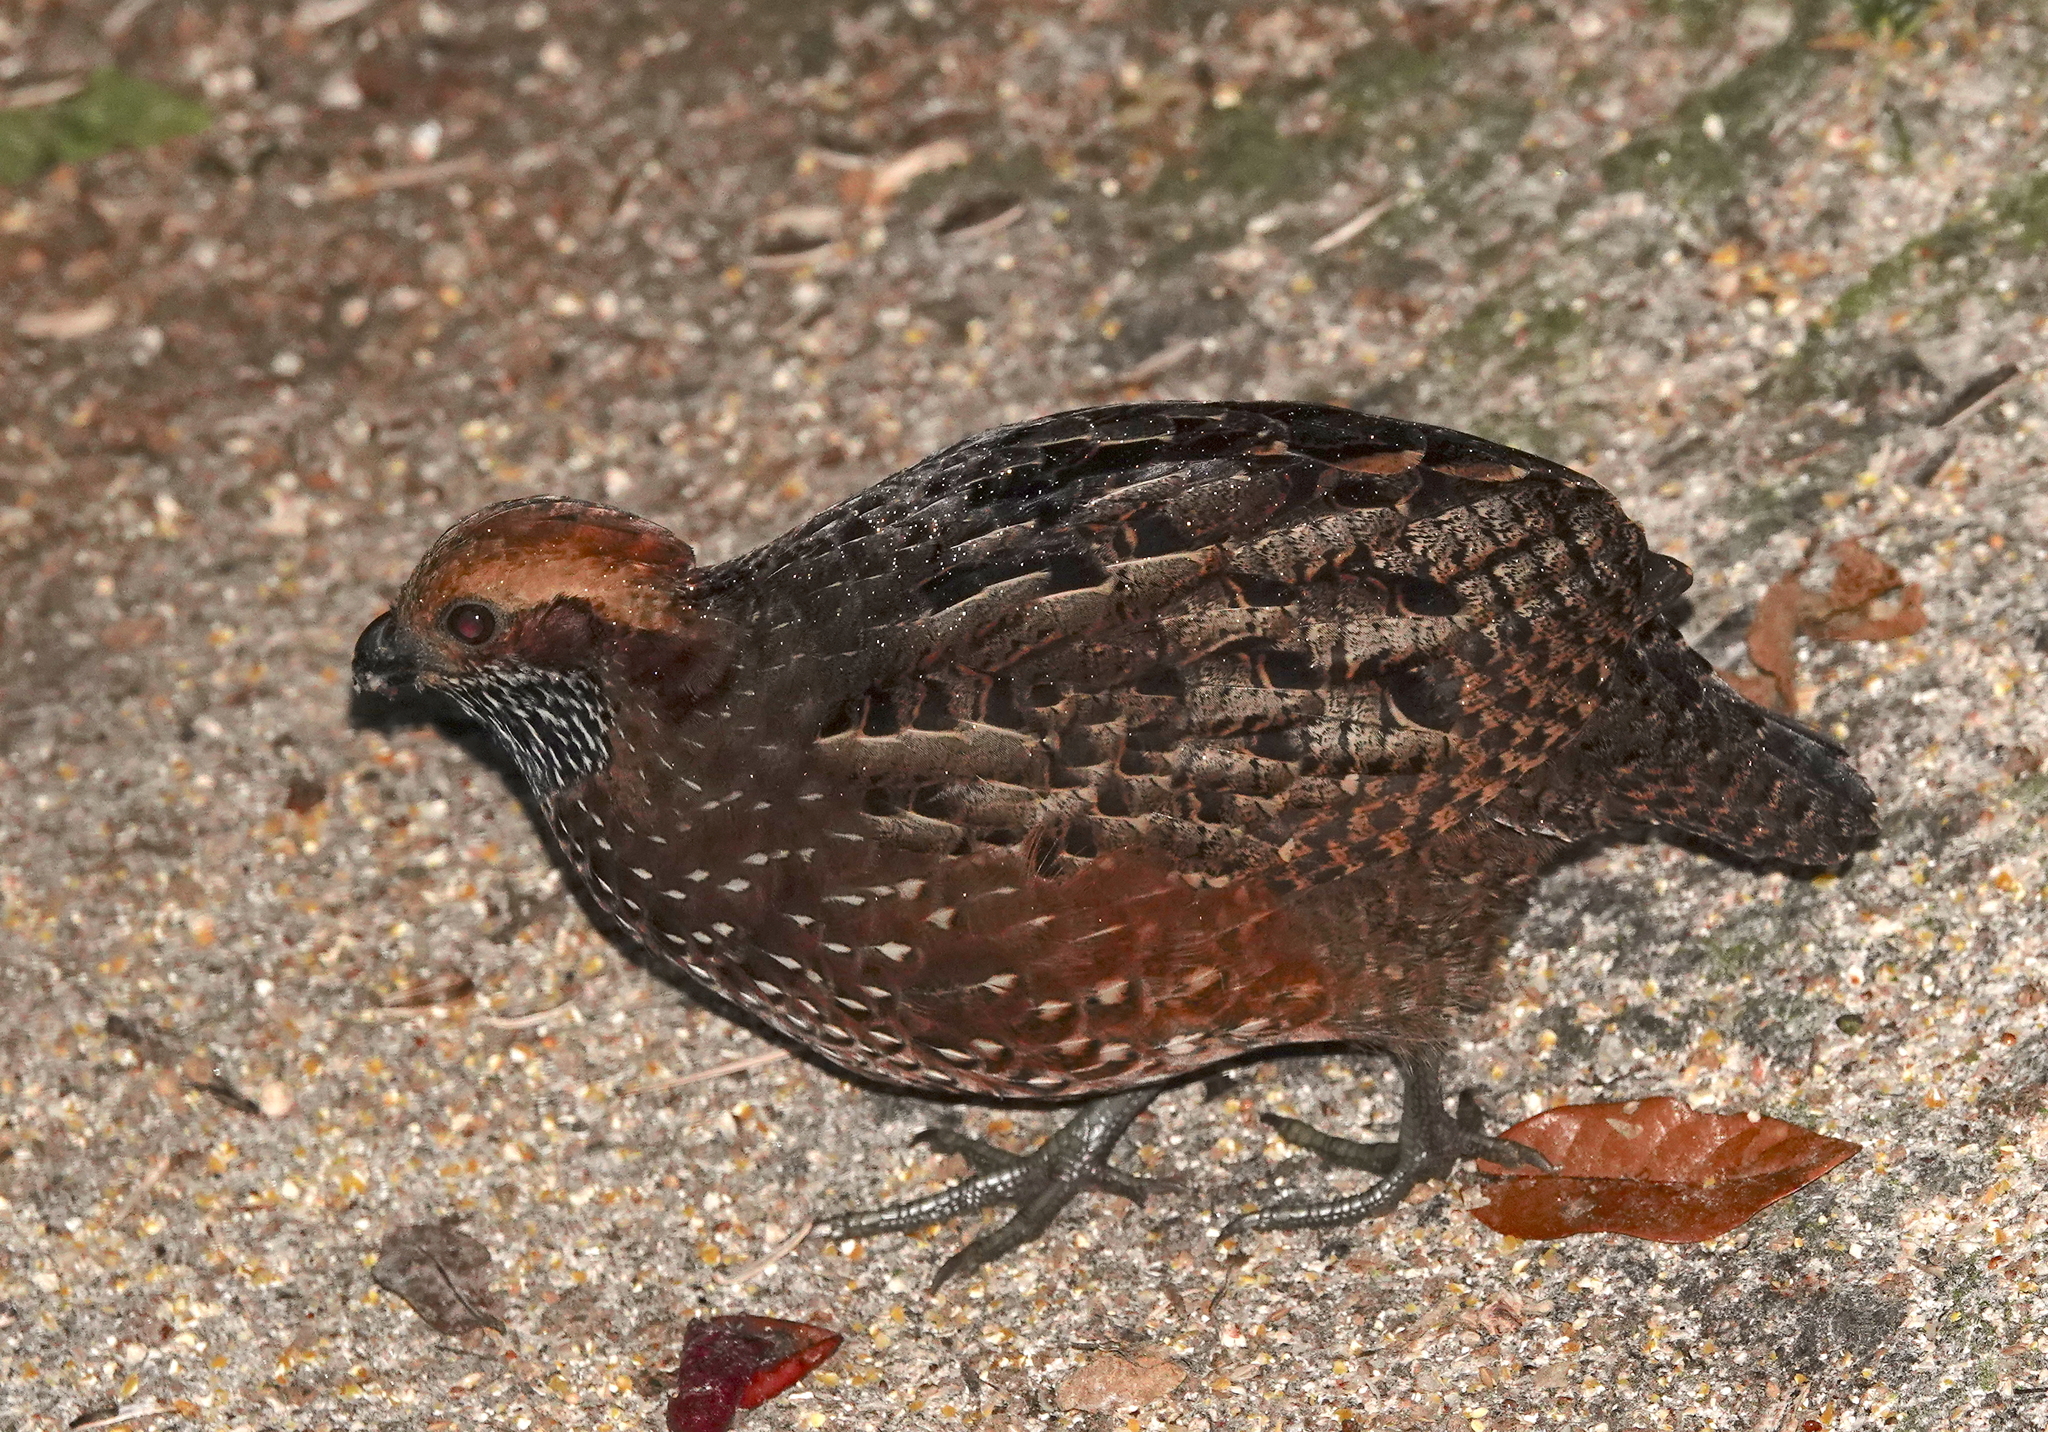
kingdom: Animalia
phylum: Chordata
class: Aves
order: Galliformes
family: Odontophoridae
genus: Odontophorus
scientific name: Odontophorus guttatus
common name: Spotted wood-quail
